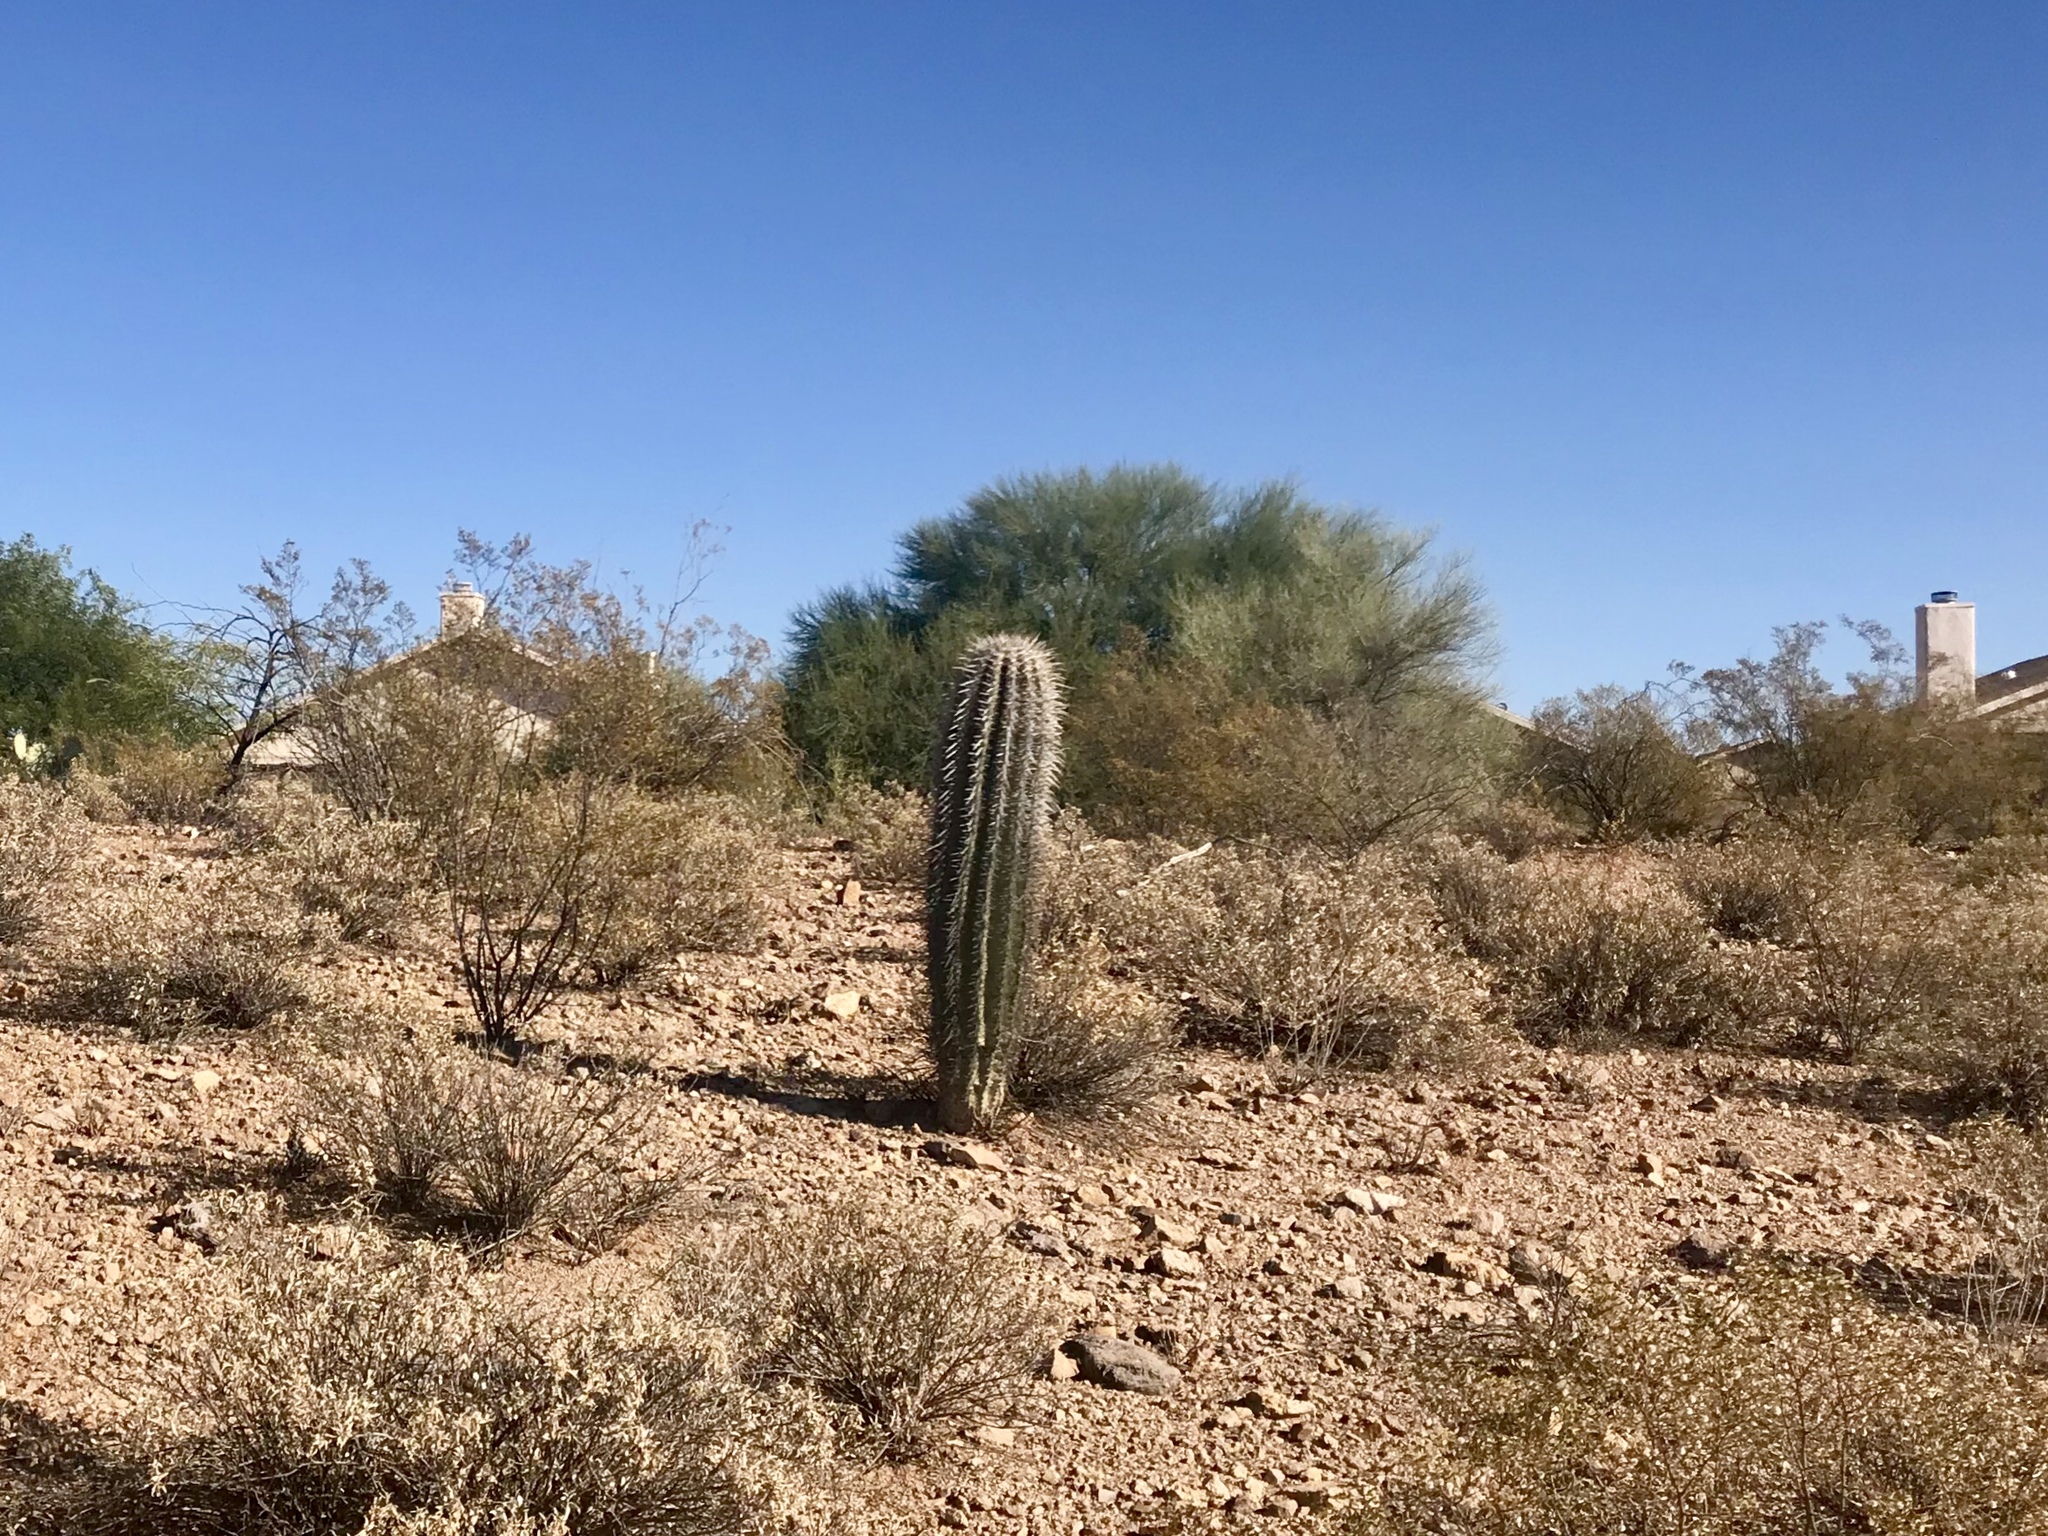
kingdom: Plantae
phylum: Tracheophyta
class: Magnoliopsida
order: Caryophyllales
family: Cactaceae
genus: Carnegiea
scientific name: Carnegiea gigantea
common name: Saguaro
